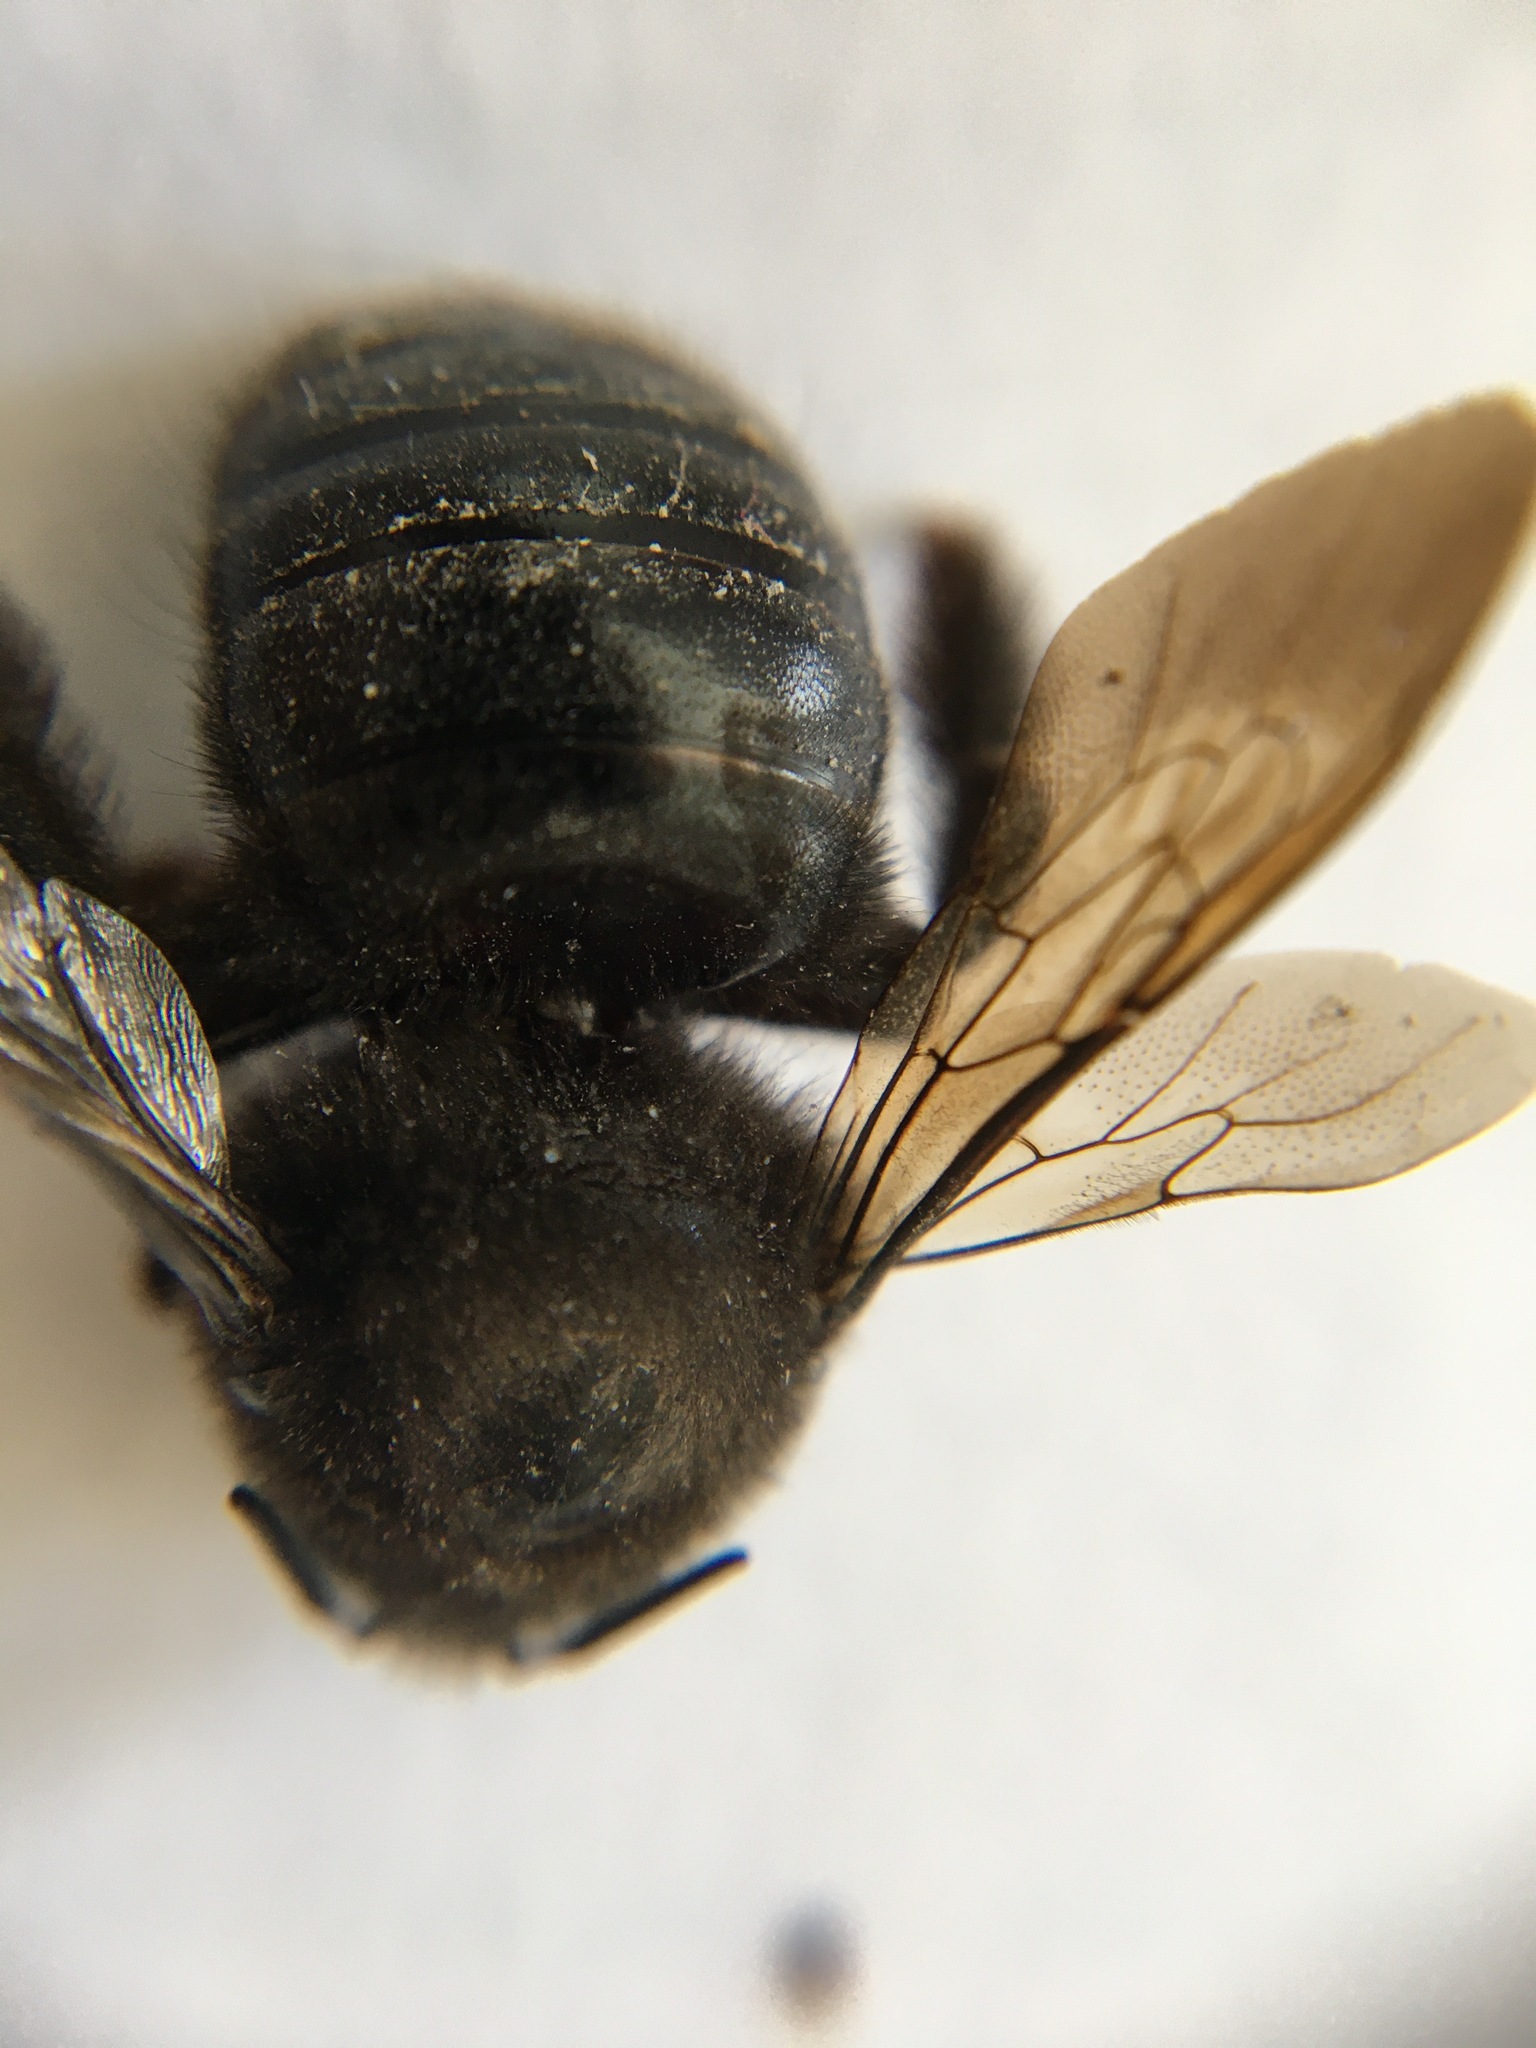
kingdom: Animalia
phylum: Arthropoda
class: Insecta
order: Hymenoptera
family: Apidae
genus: Xylocopa
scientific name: Xylocopa tabaniformis
